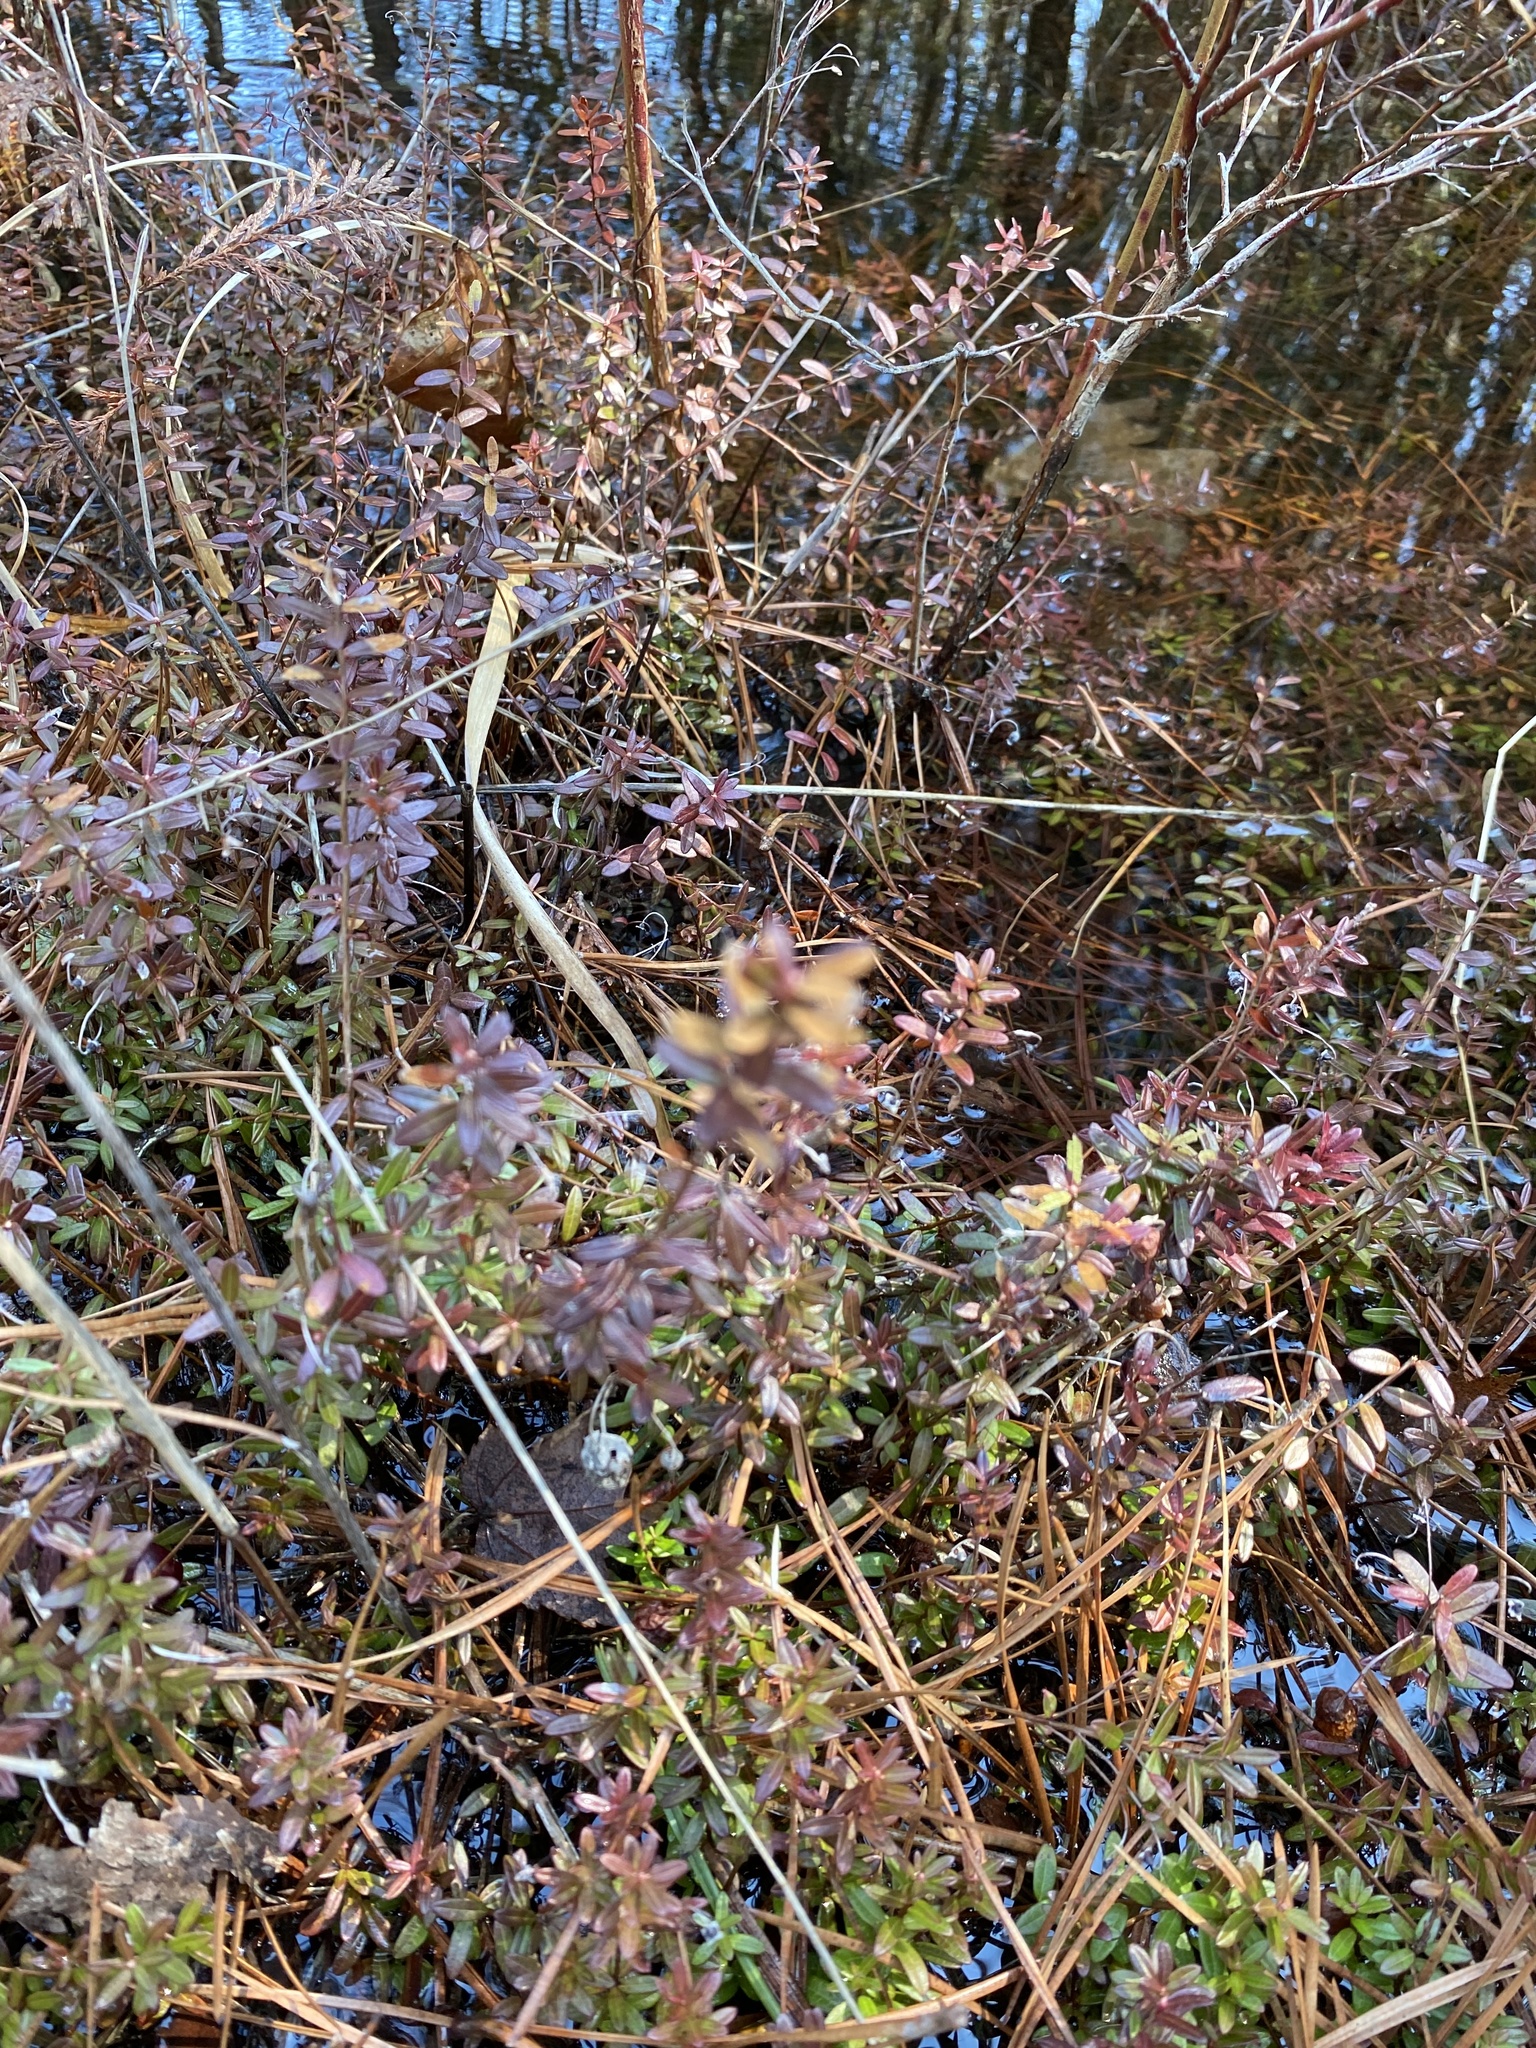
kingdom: Plantae
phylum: Tracheophyta
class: Magnoliopsida
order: Ericales
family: Ericaceae
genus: Vaccinium
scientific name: Vaccinium macrocarpon
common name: American cranberry
